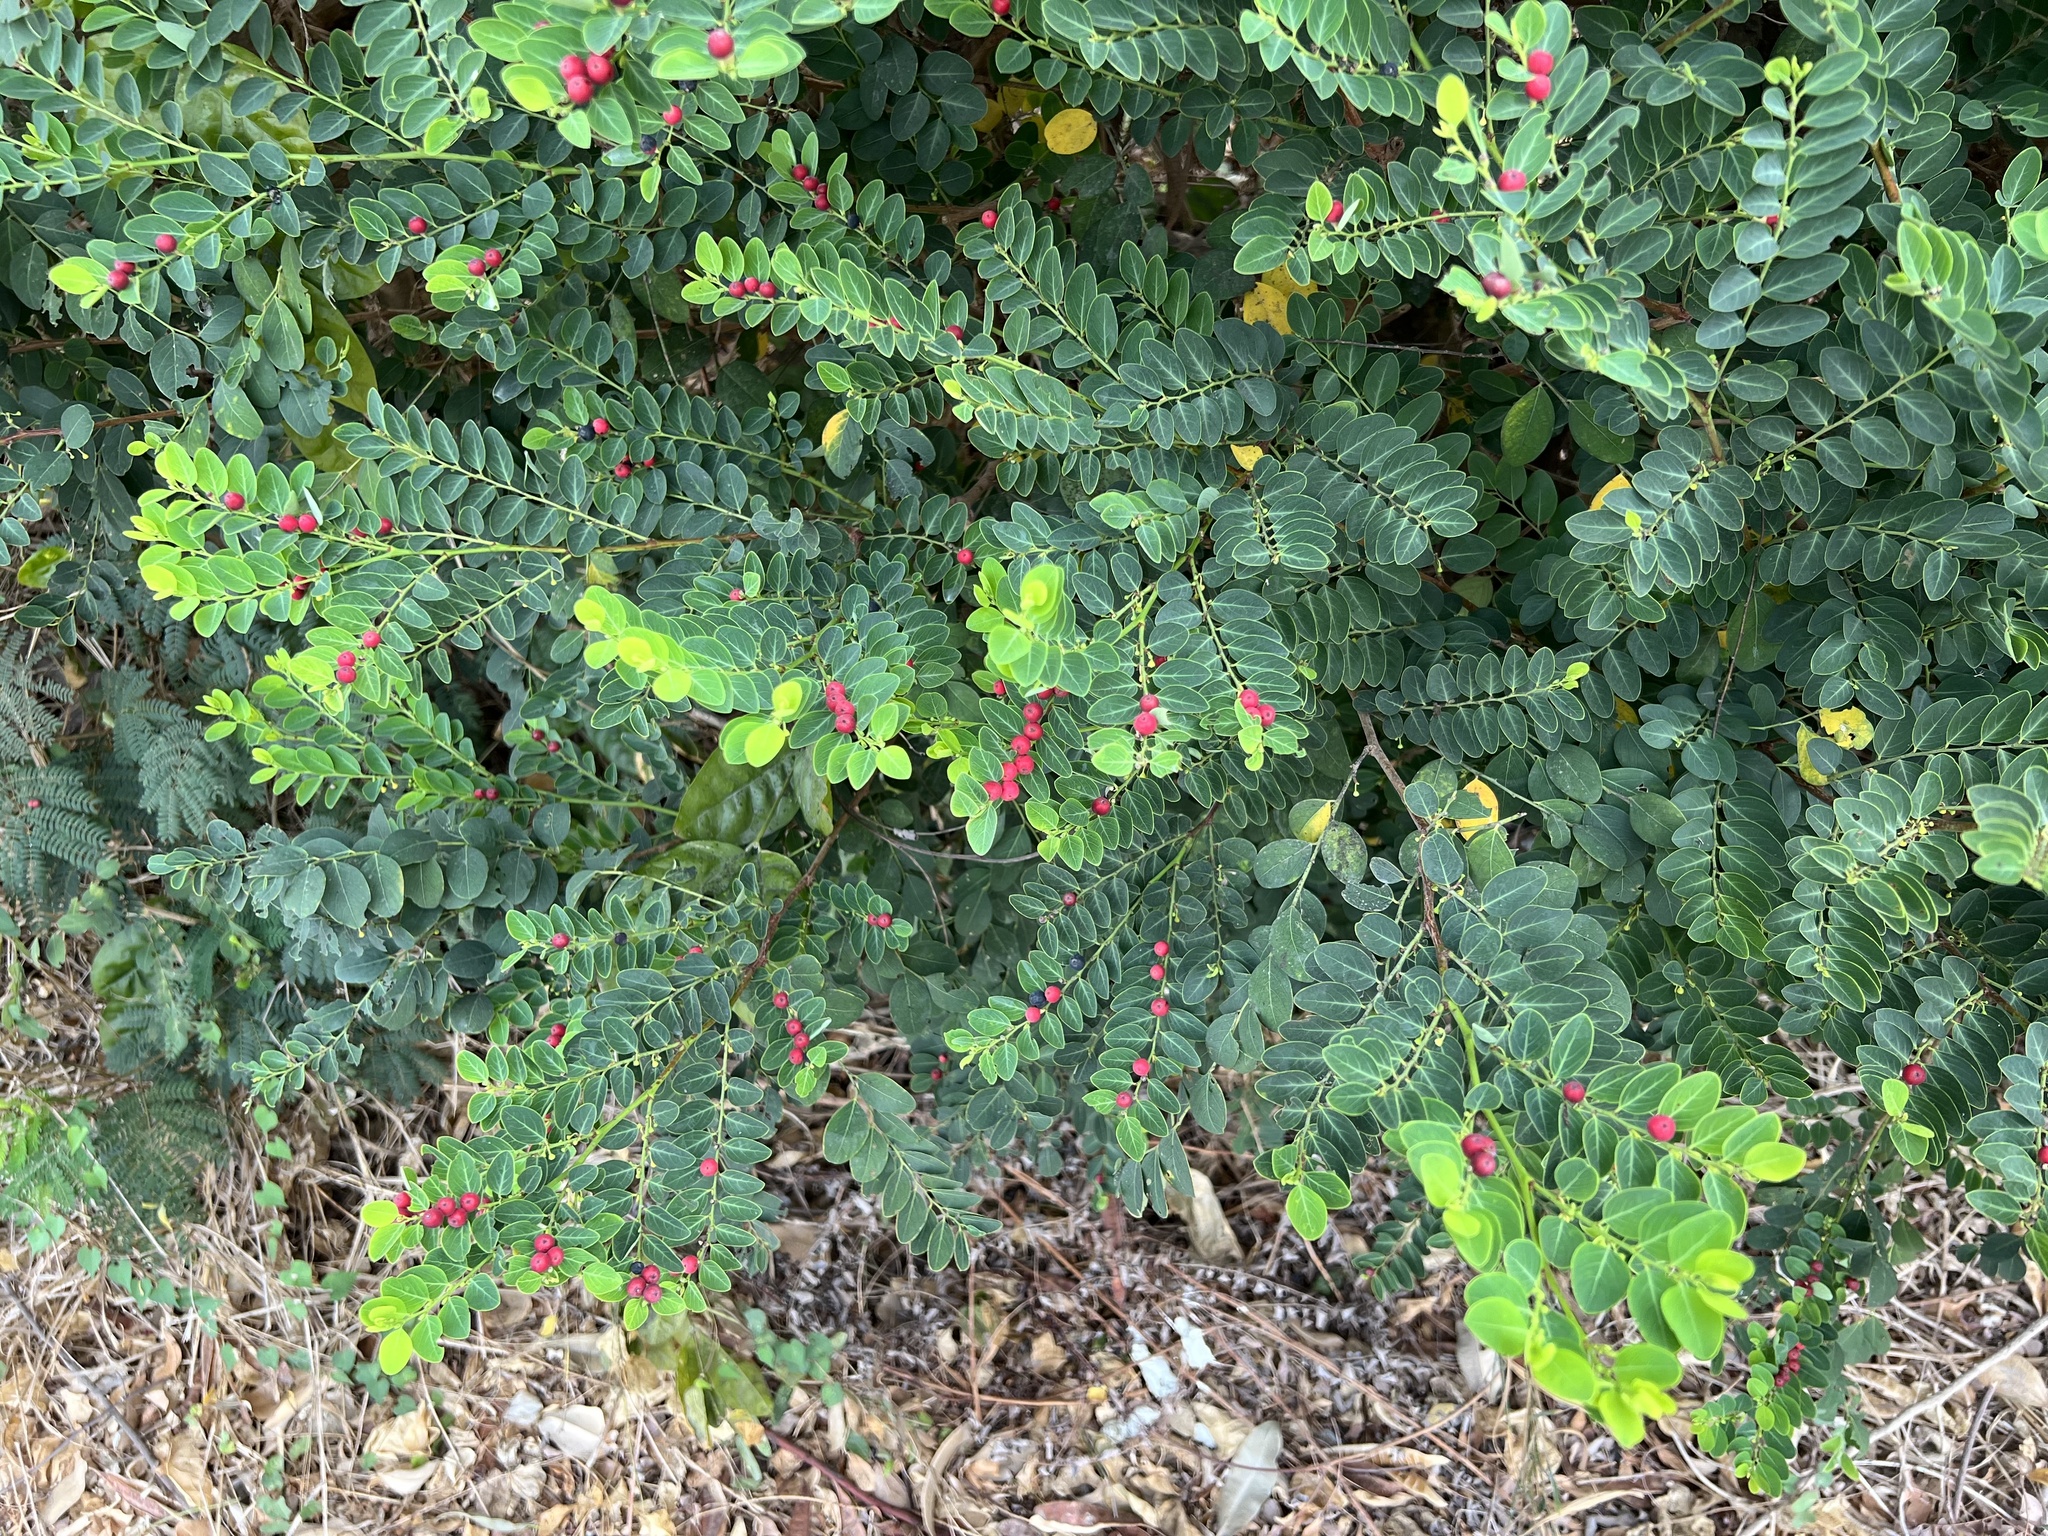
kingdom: Plantae
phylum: Tracheophyta
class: Magnoliopsida
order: Malpighiales
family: Phyllanthaceae
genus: Breynia
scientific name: Breynia vitis-idaea
